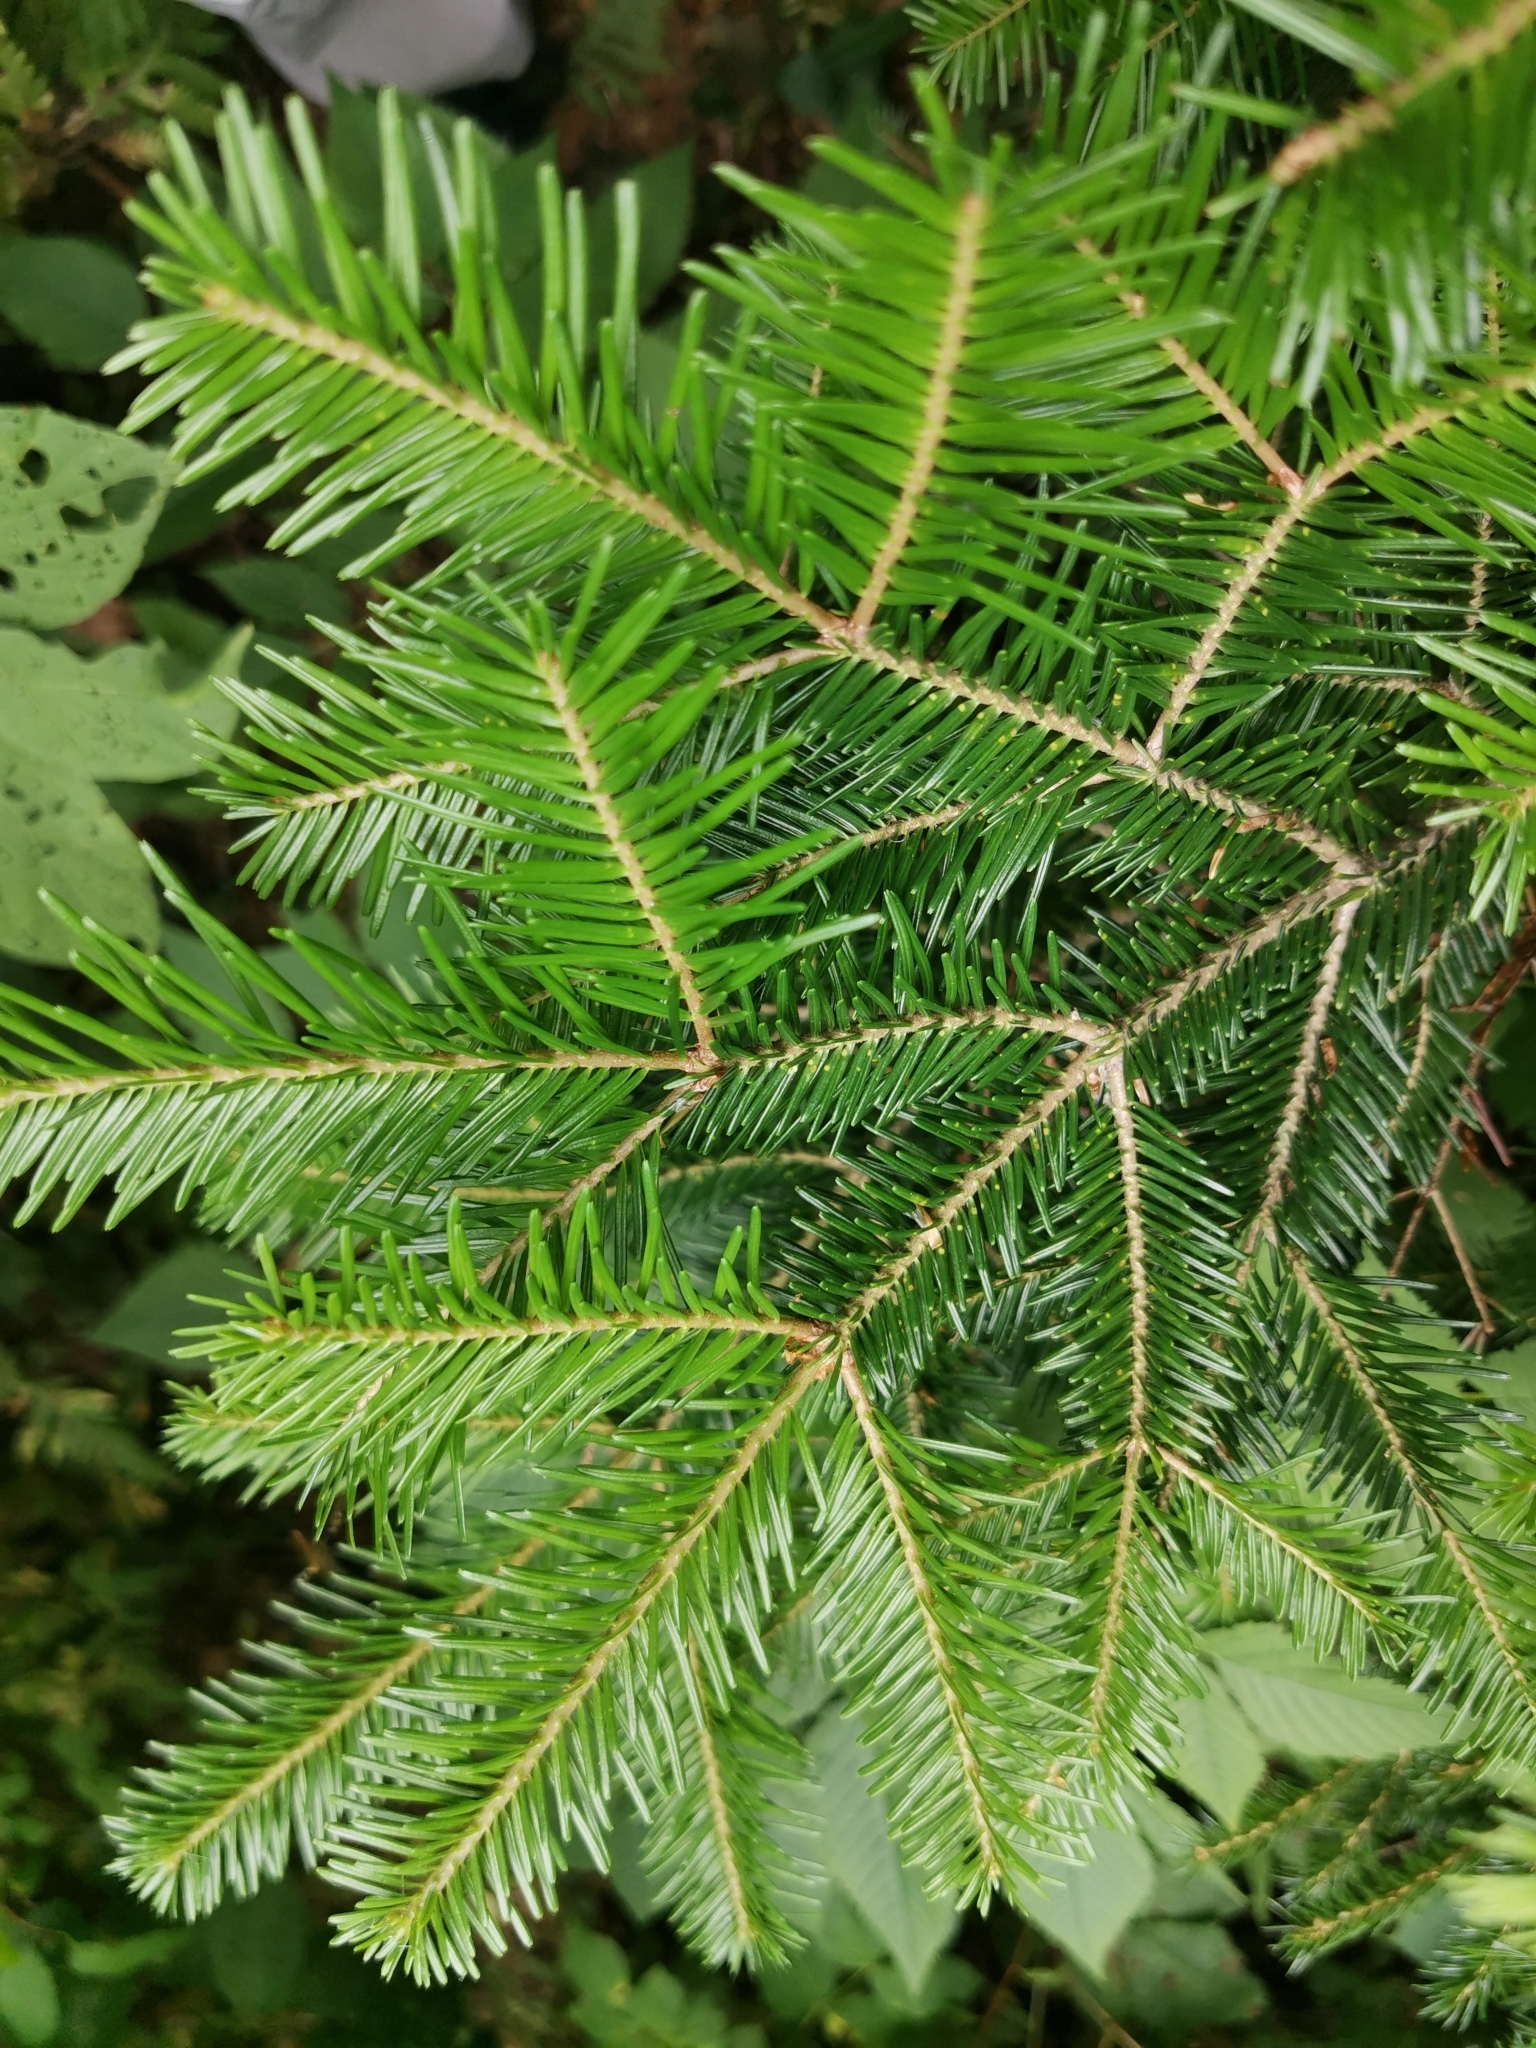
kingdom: Plantae
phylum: Tracheophyta
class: Pinopsida
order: Pinales
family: Pinaceae
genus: Abies
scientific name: Abies nephrolepis
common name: Hinggan fir
